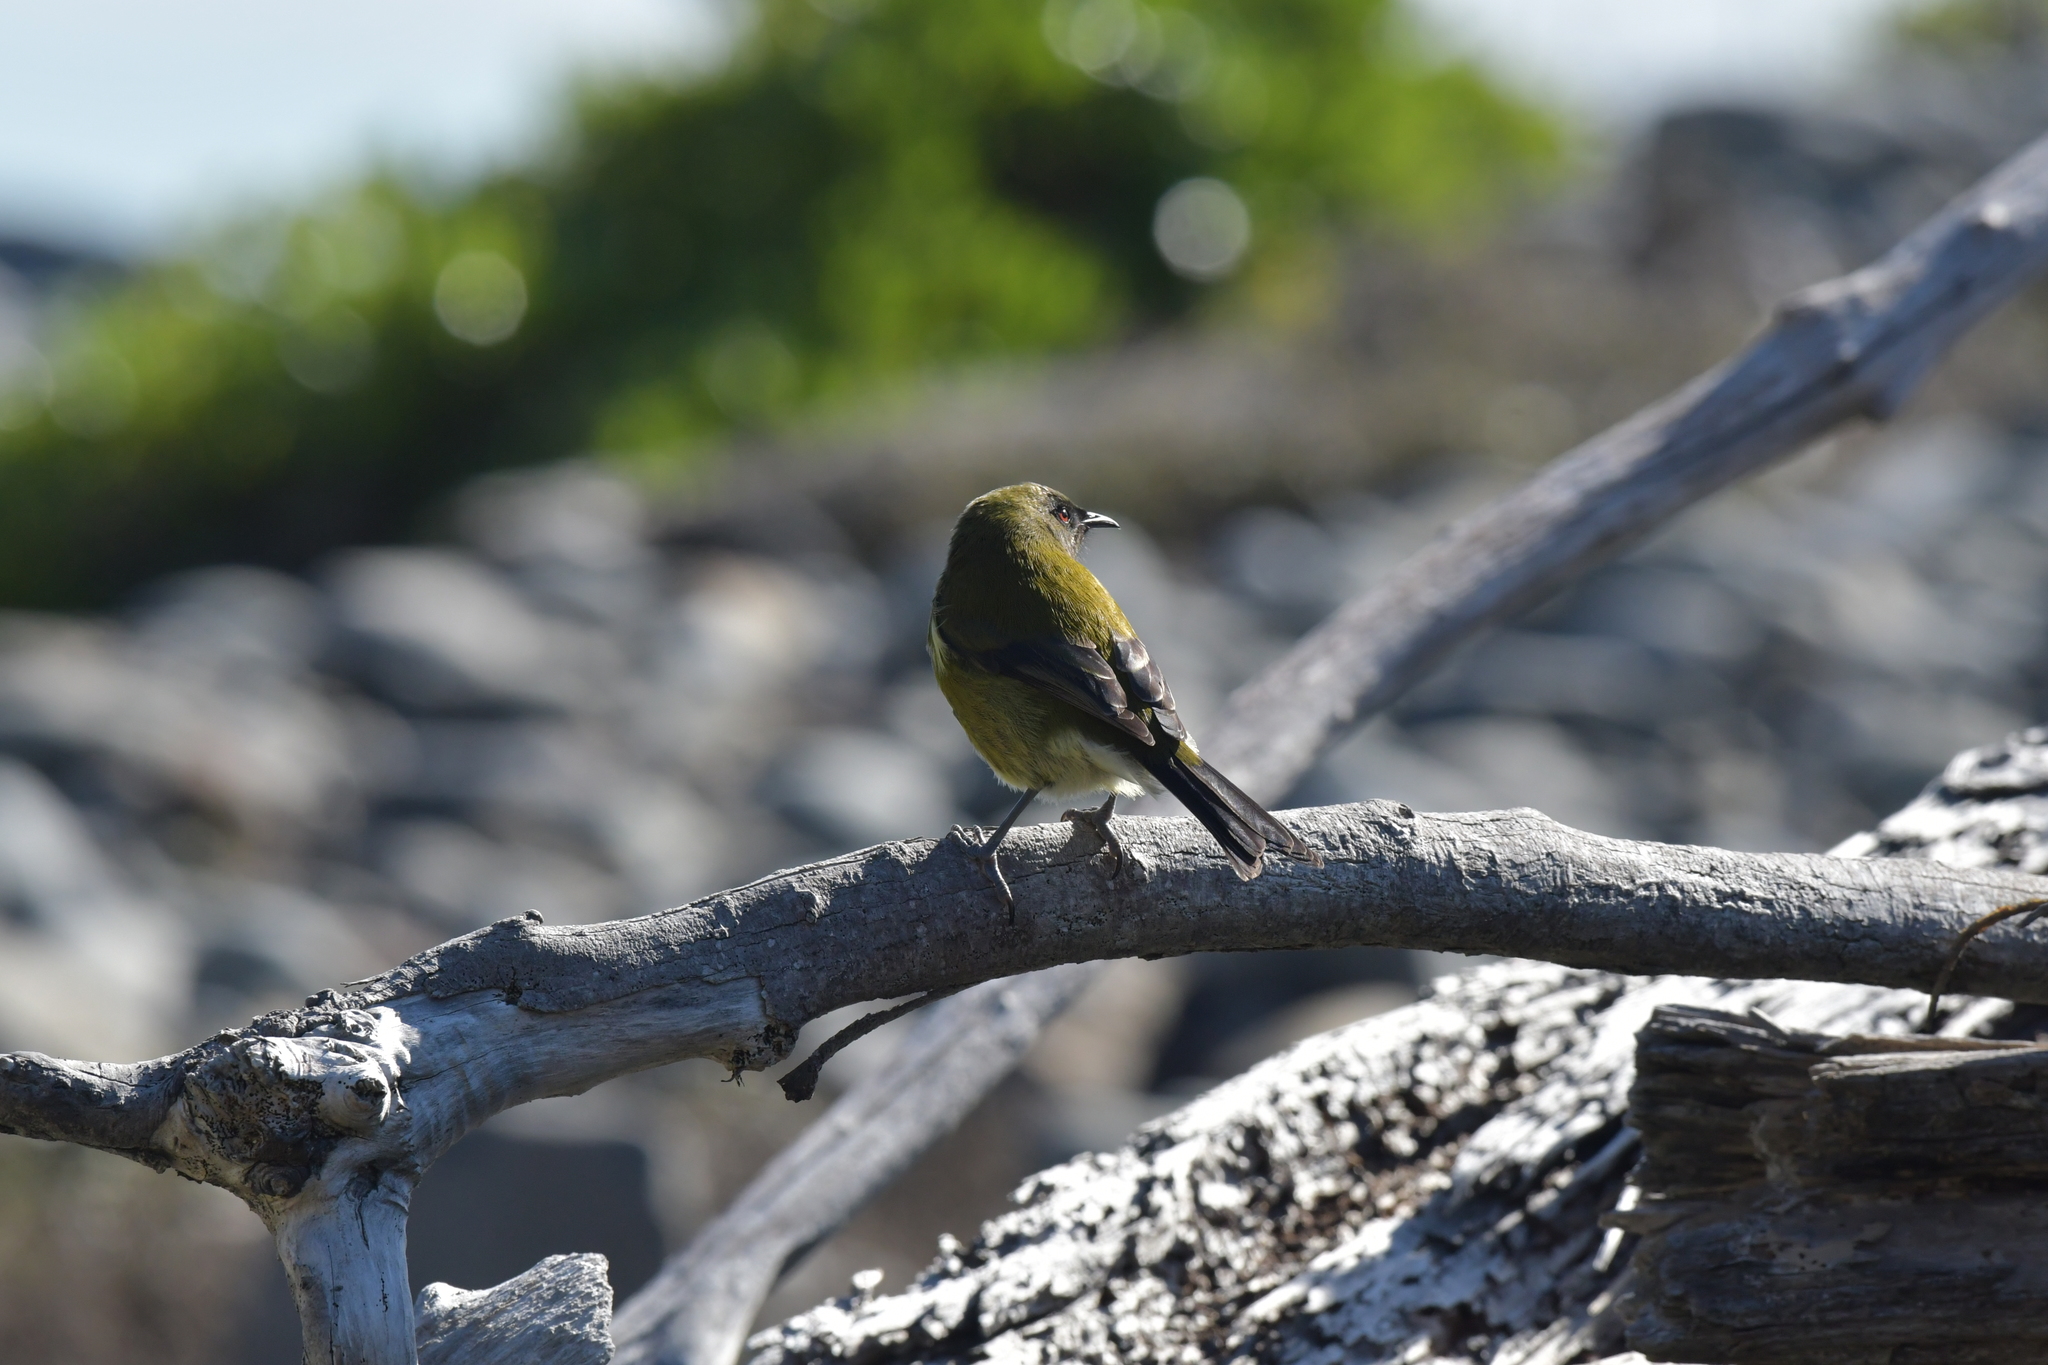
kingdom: Animalia
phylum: Chordata
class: Aves
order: Passeriformes
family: Meliphagidae
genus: Anthornis
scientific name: Anthornis melanura
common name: New zealand bellbird
